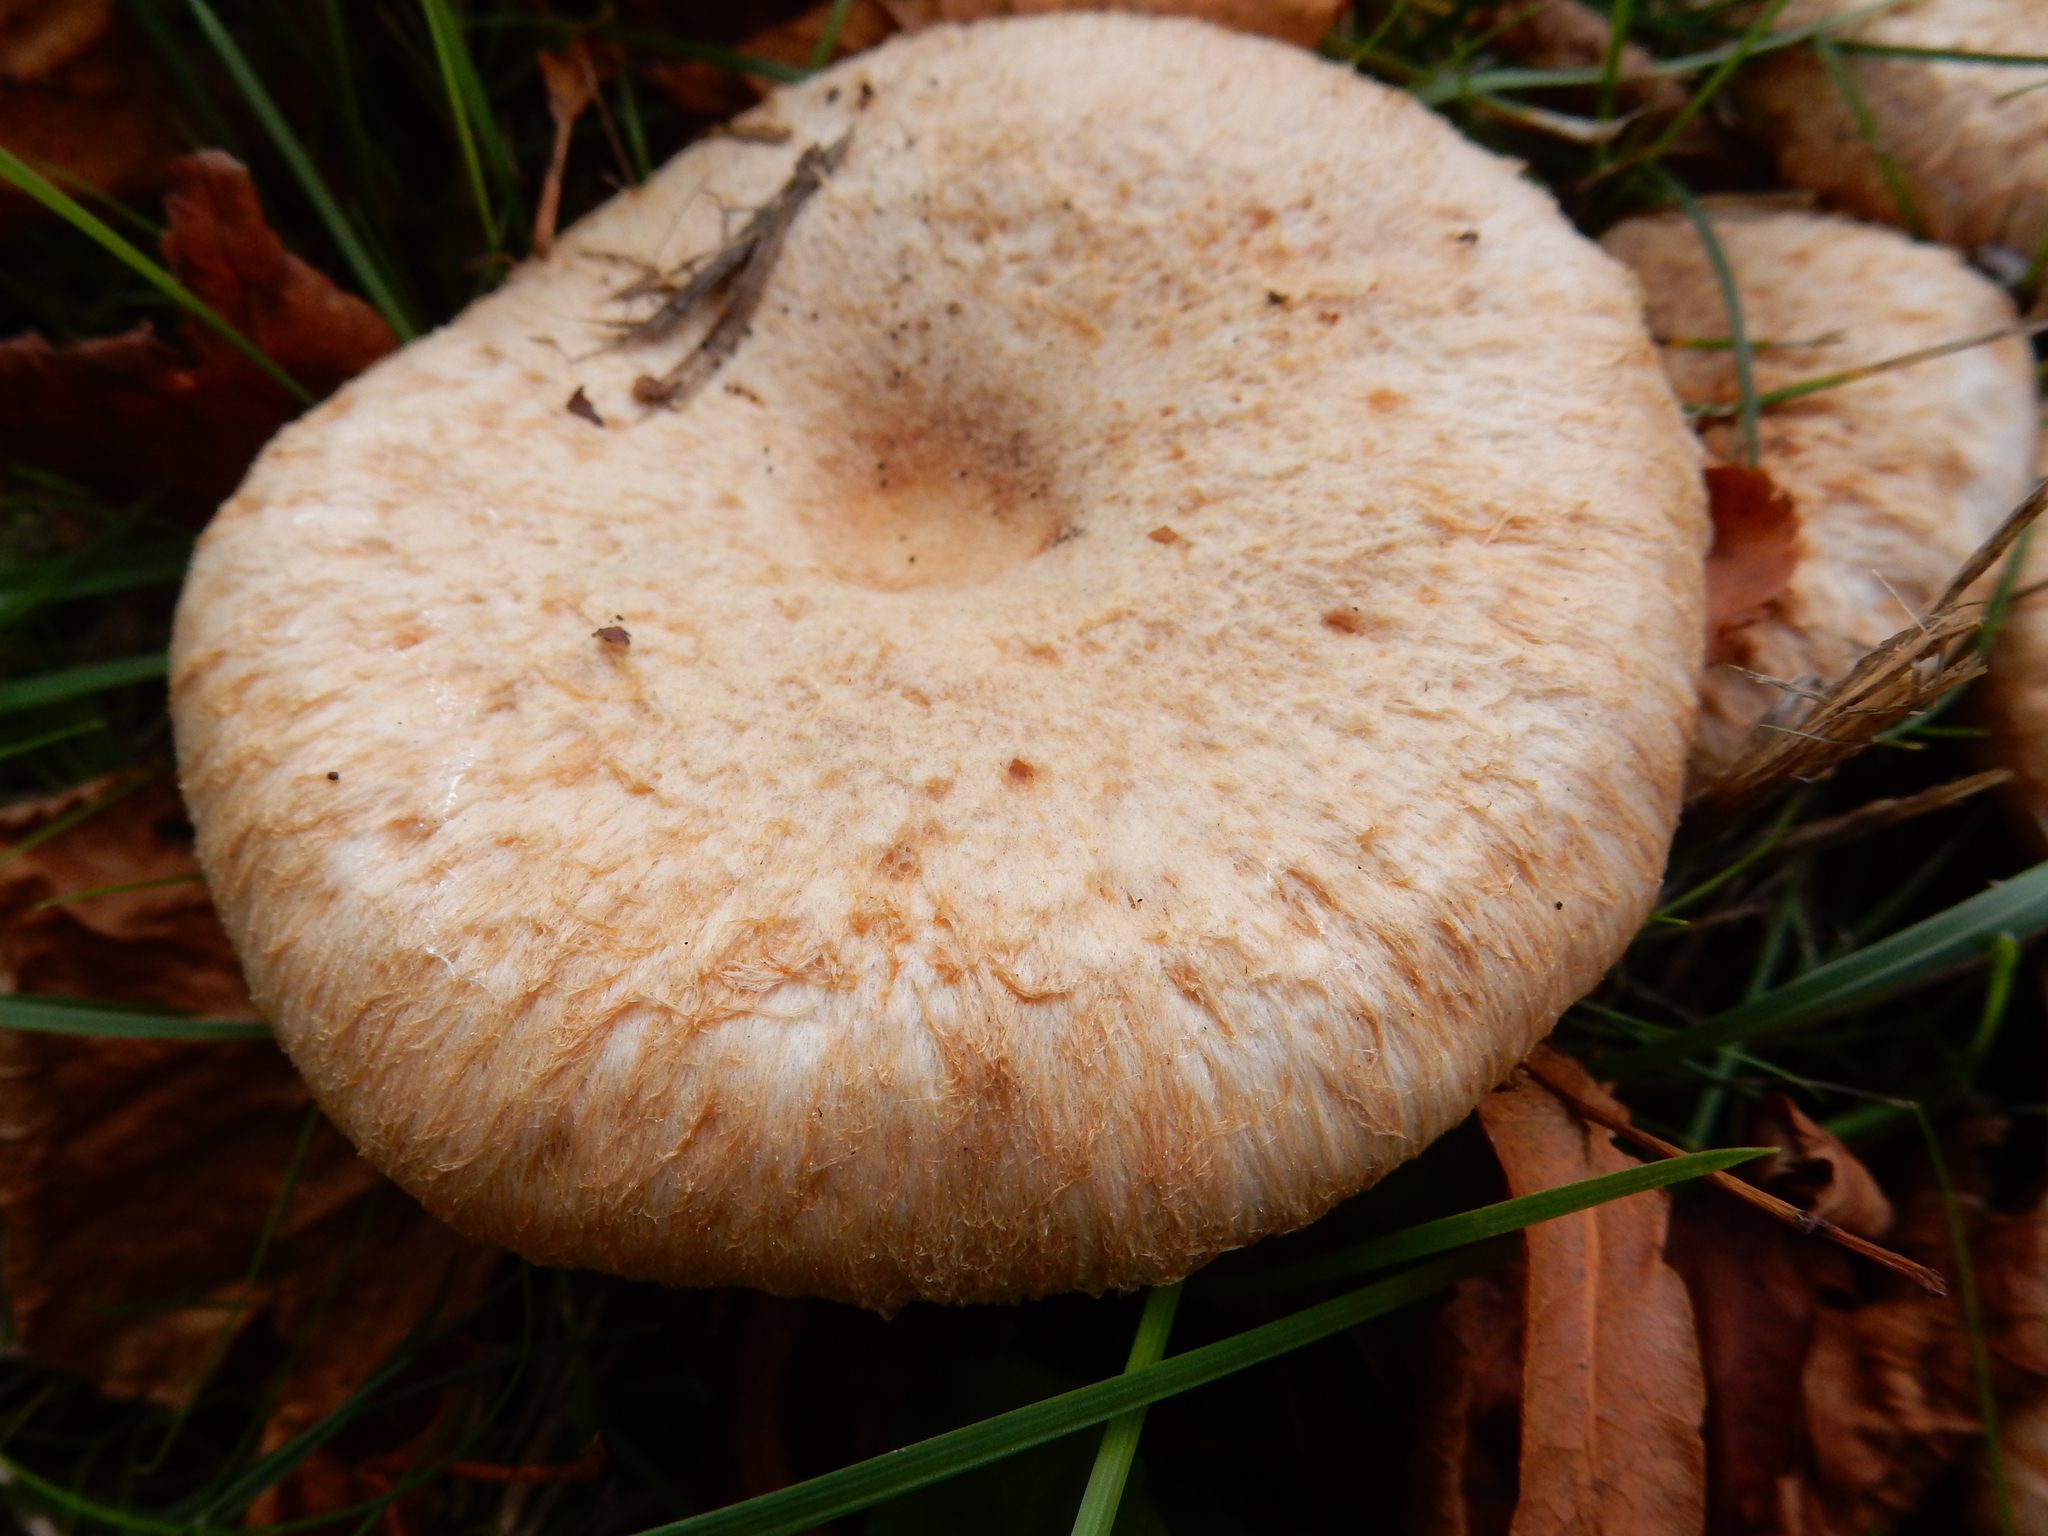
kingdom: Fungi
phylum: Basidiomycota
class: Agaricomycetes
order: Russulales
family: Russulaceae
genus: Lactarius
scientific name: Lactarius pubescens
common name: Bearded milkcap
